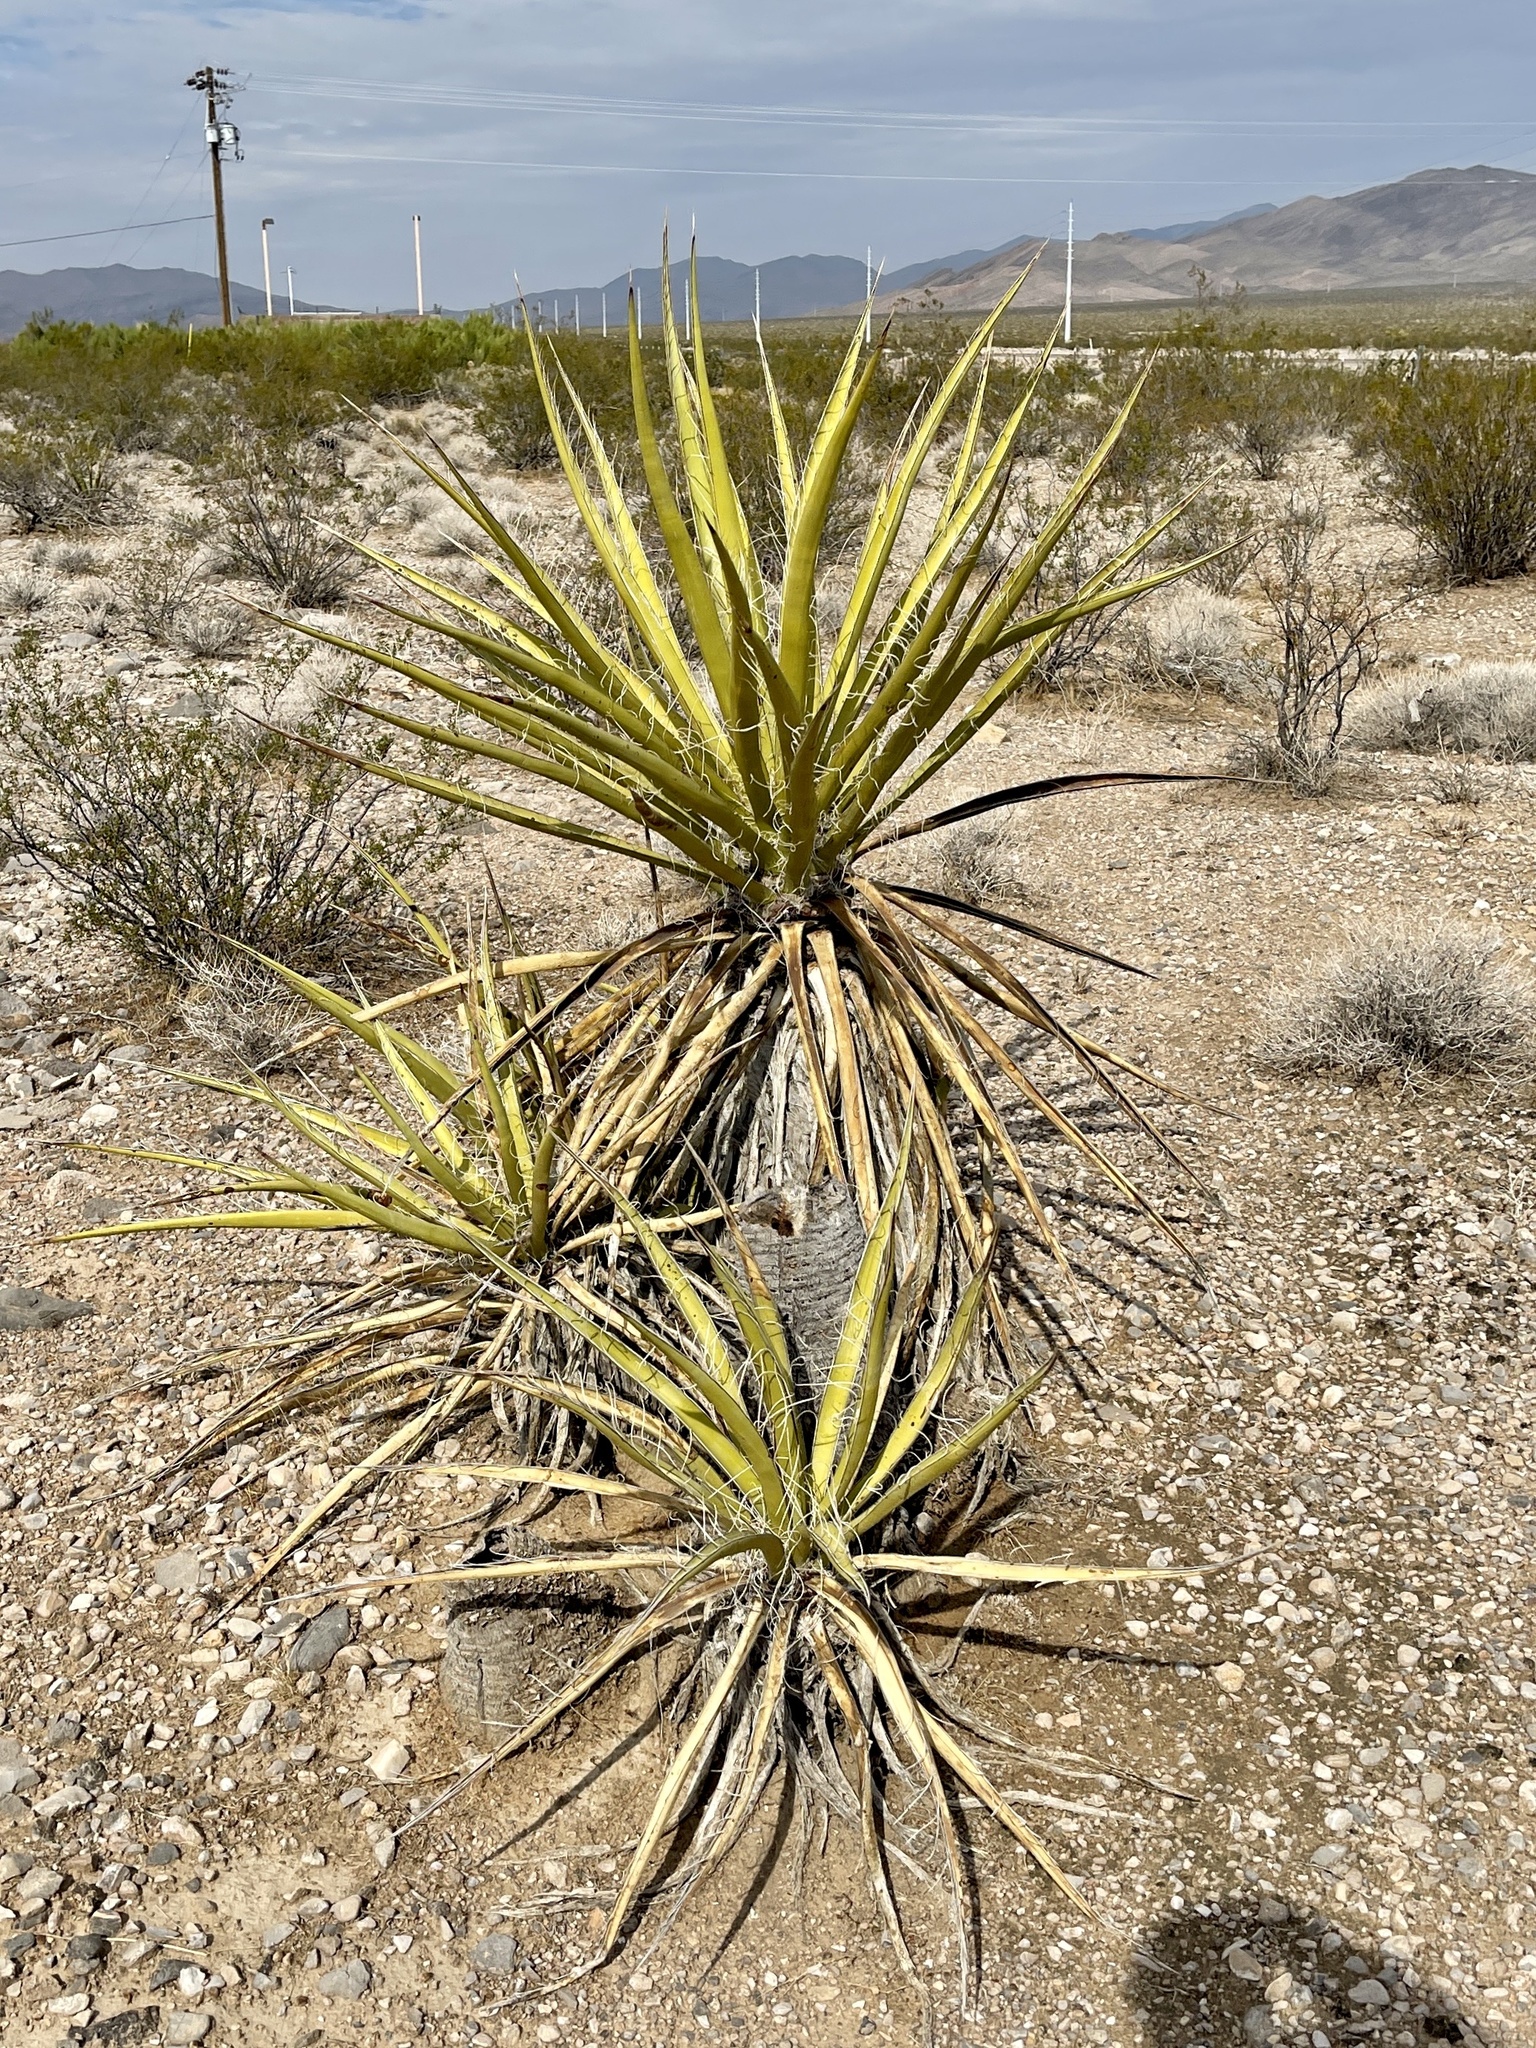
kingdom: Plantae
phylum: Tracheophyta
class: Liliopsida
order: Asparagales
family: Asparagaceae
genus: Yucca
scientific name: Yucca schidigera
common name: Mojave yucca
